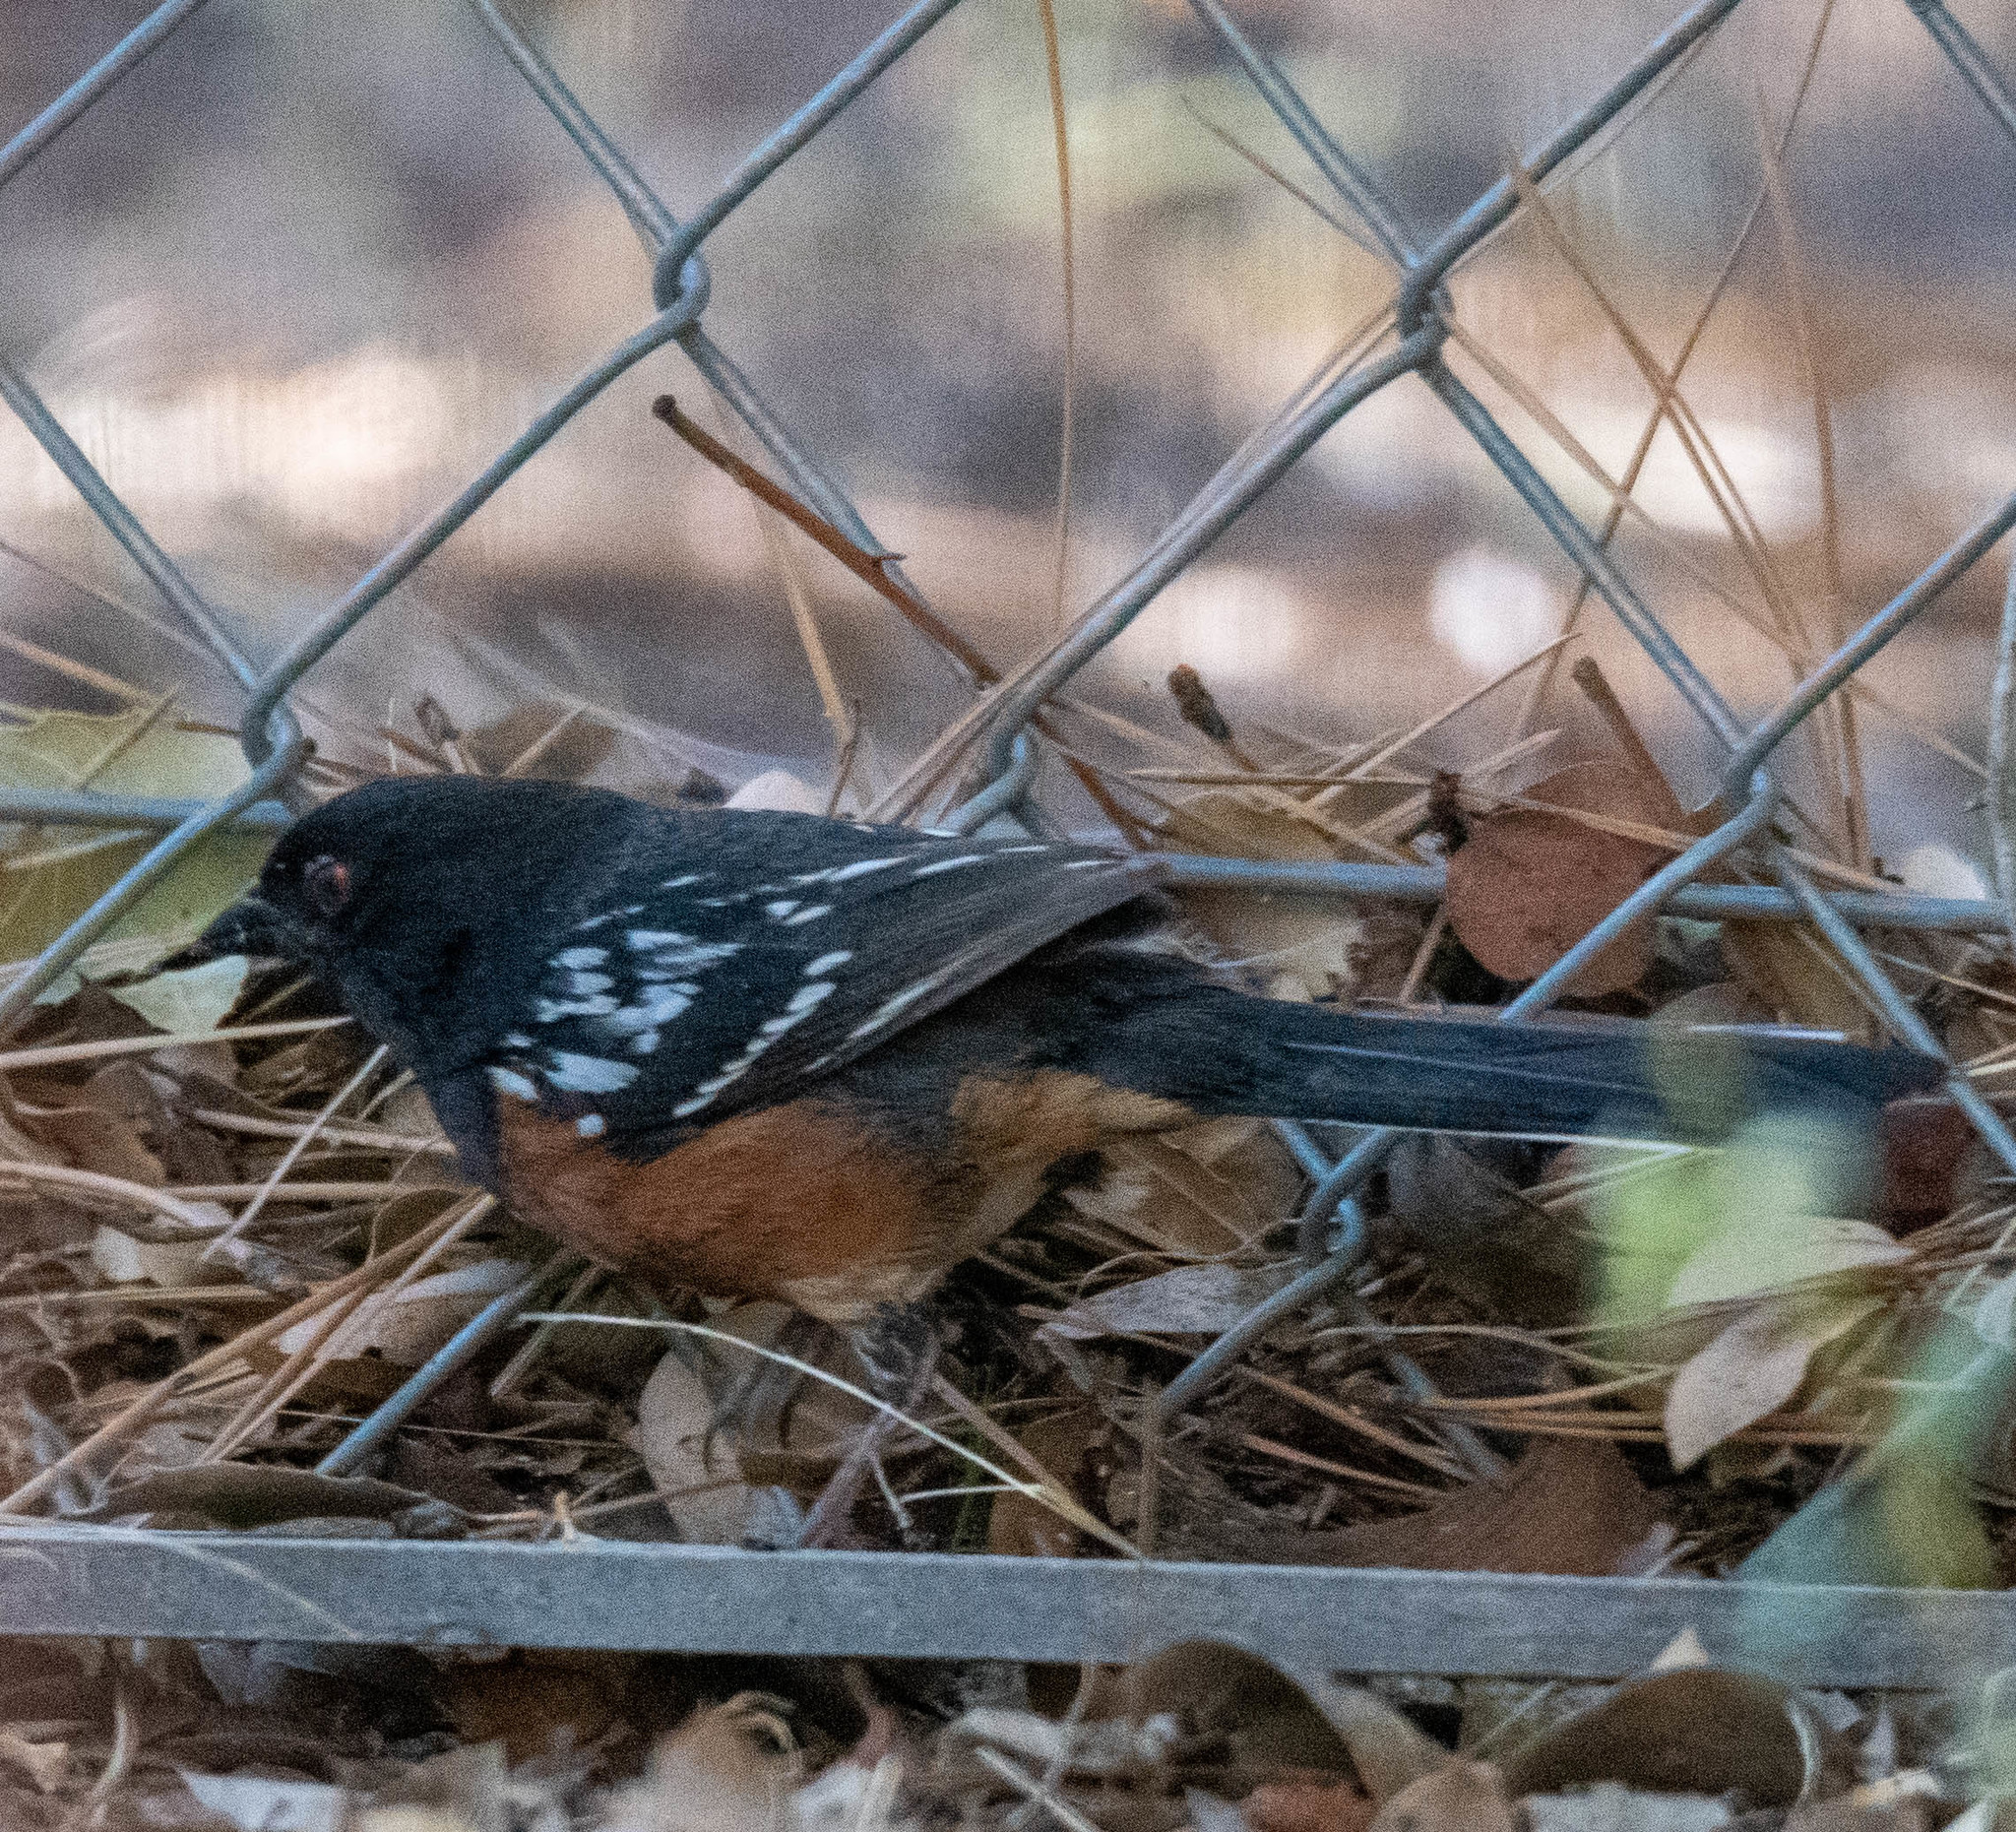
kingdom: Animalia
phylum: Chordata
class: Aves
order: Passeriformes
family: Passerellidae
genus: Pipilo
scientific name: Pipilo maculatus
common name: Spotted towhee
